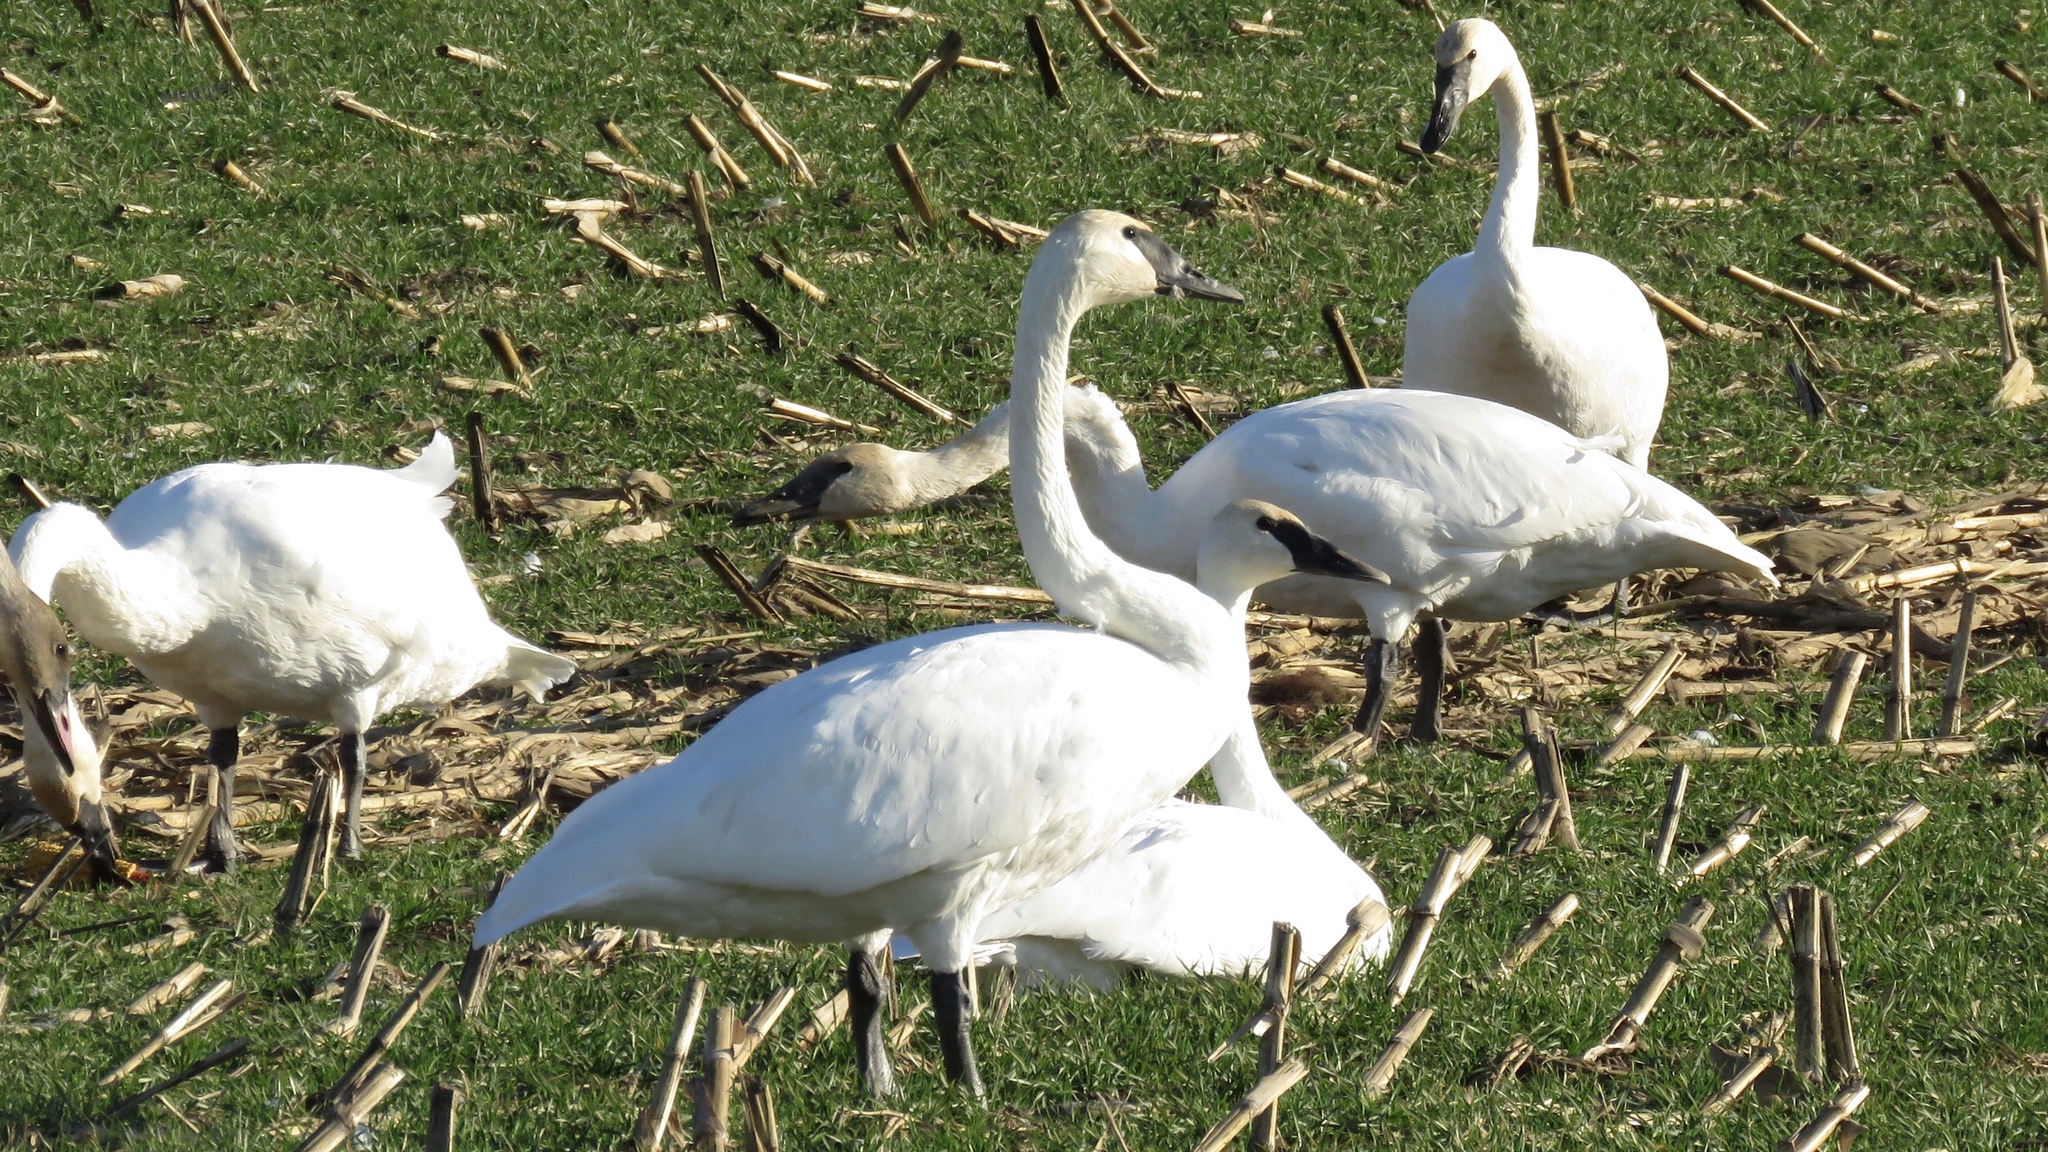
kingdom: Animalia
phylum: Chordata
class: Aves
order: Anseriformes
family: Anatidae
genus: Cygnus
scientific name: Cygnus buccinator
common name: Trumpeter swan
